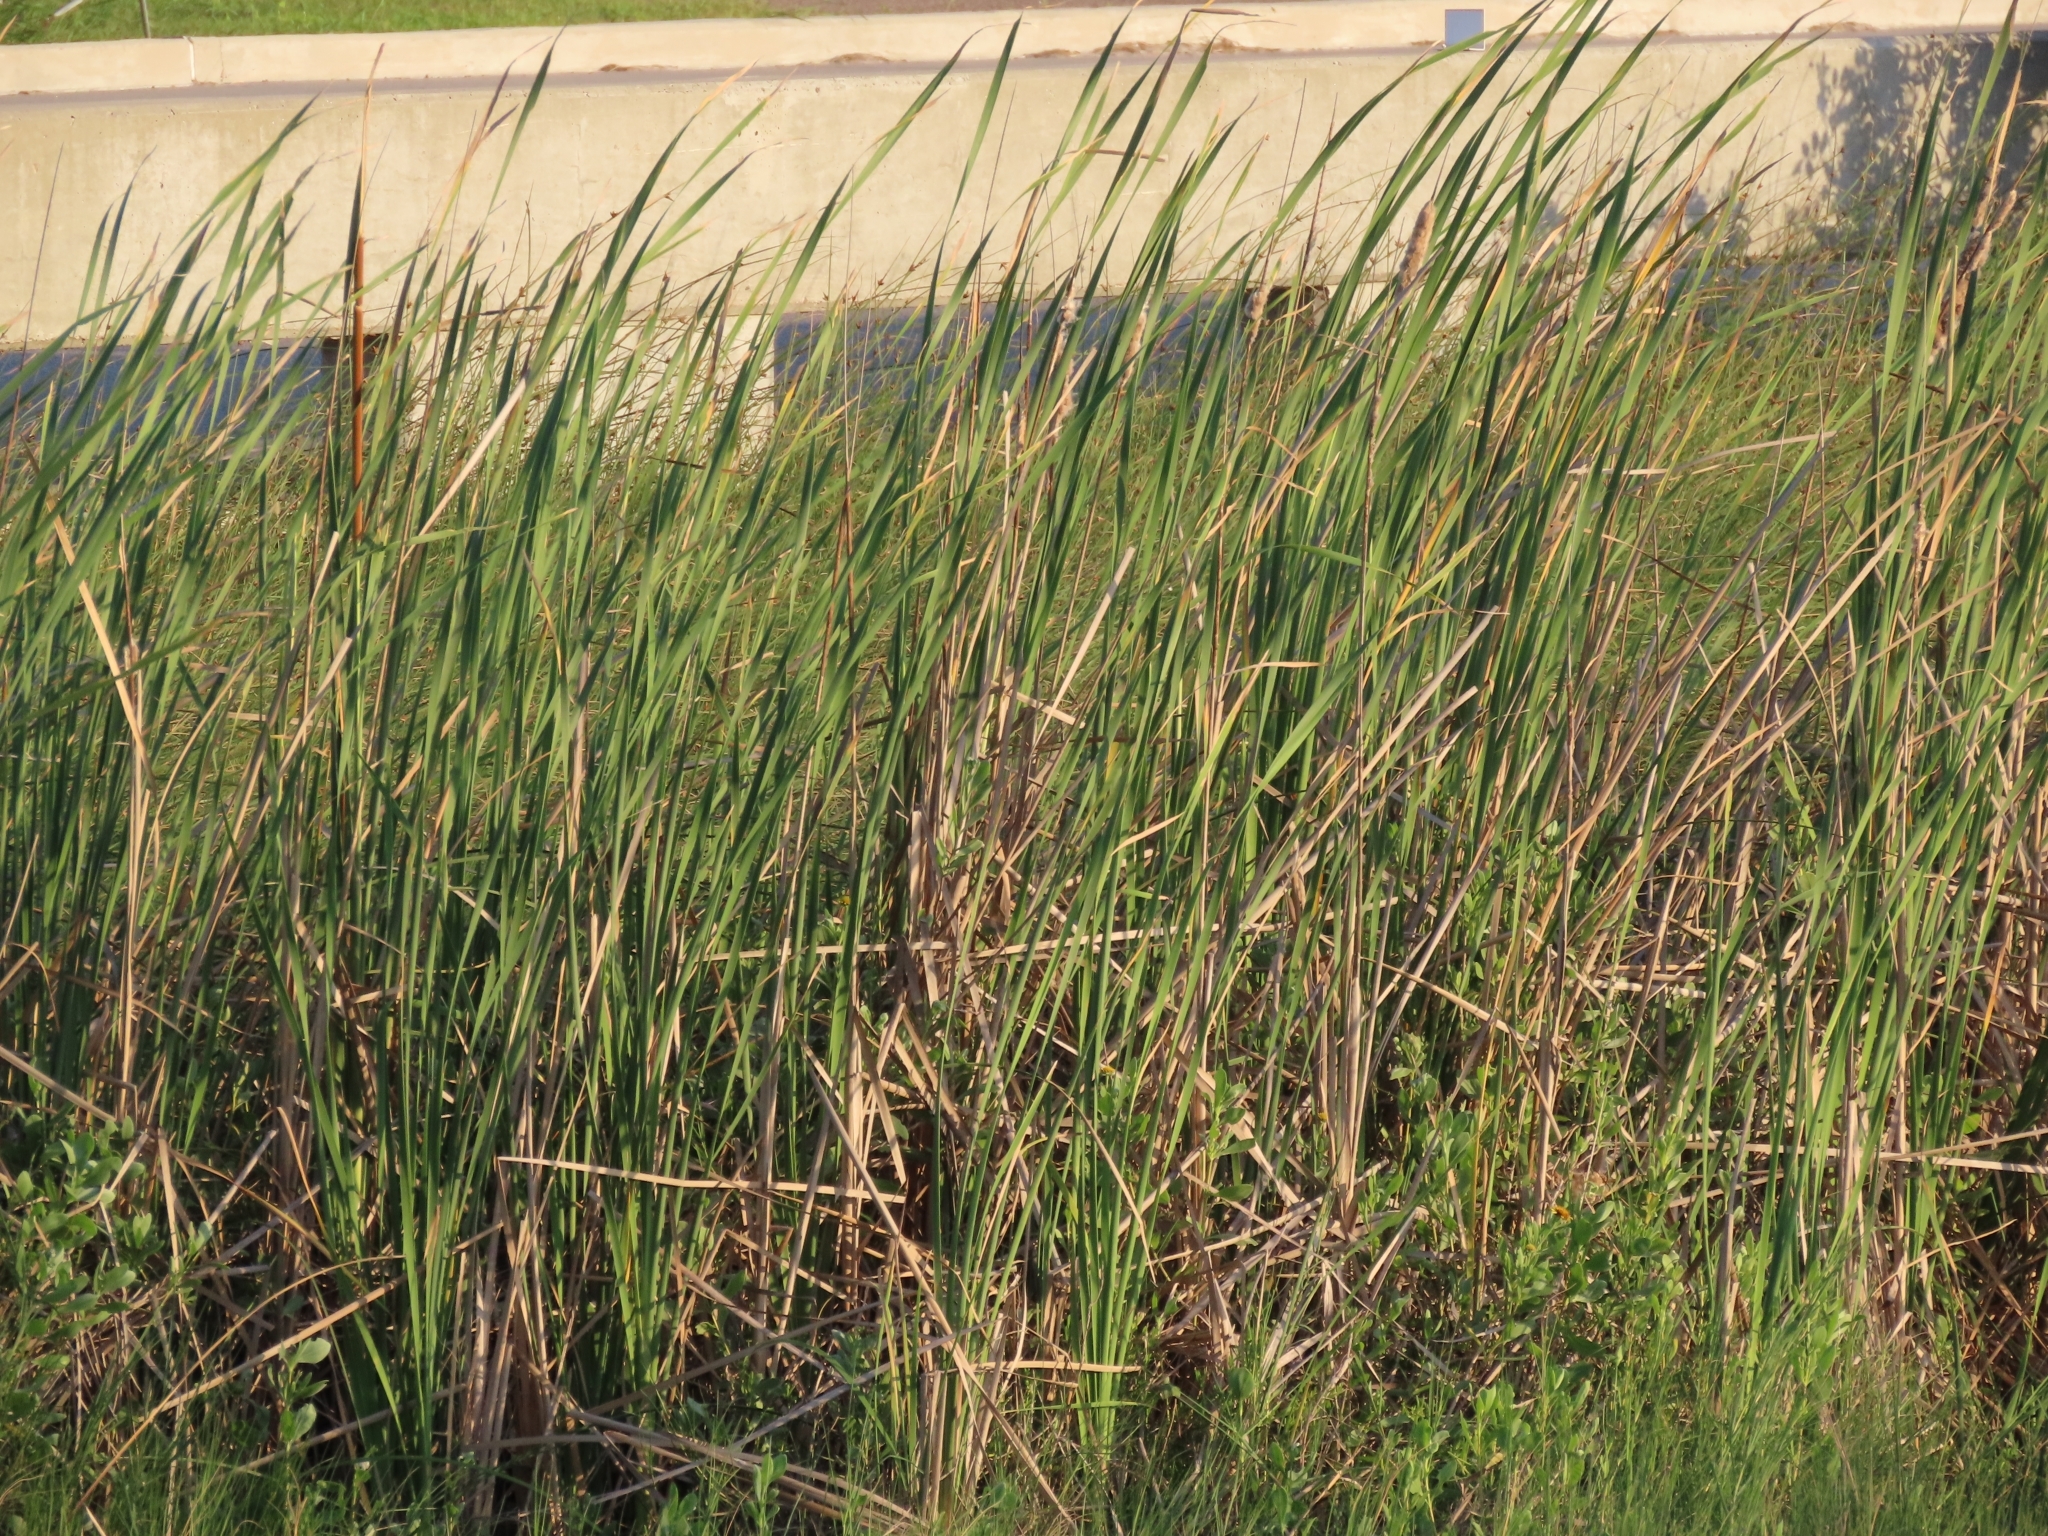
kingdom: Plantae
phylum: Tracheophyta
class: Liliopsida
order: Poales
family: Typhaceae
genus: Typha
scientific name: Typha domingensis
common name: Southern cattail
